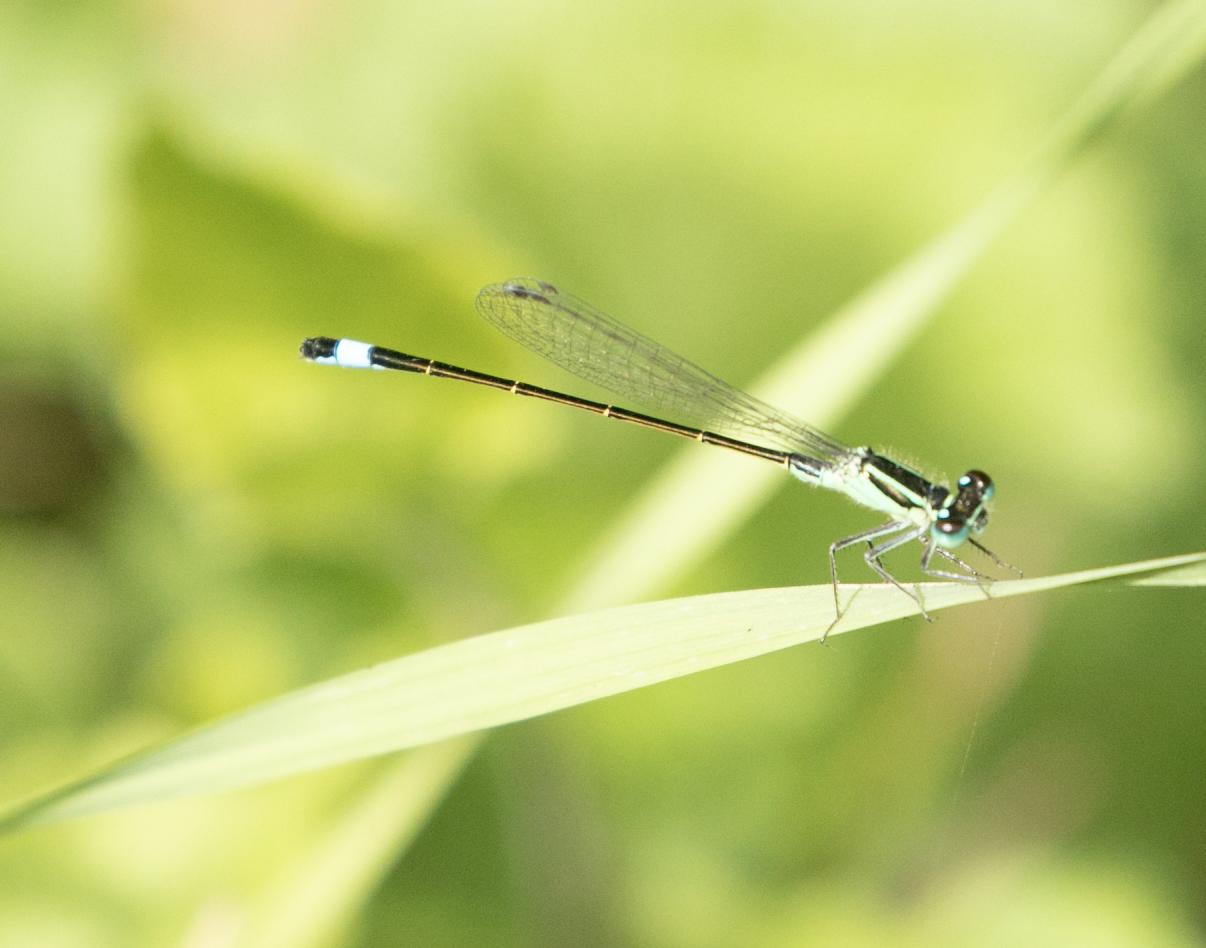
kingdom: Animalia
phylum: Arthropoda
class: Insecta
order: Odonata
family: Coenagrionidae
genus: Ischnura
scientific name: Ischnura elegans
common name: Blue-tailed damselfly
